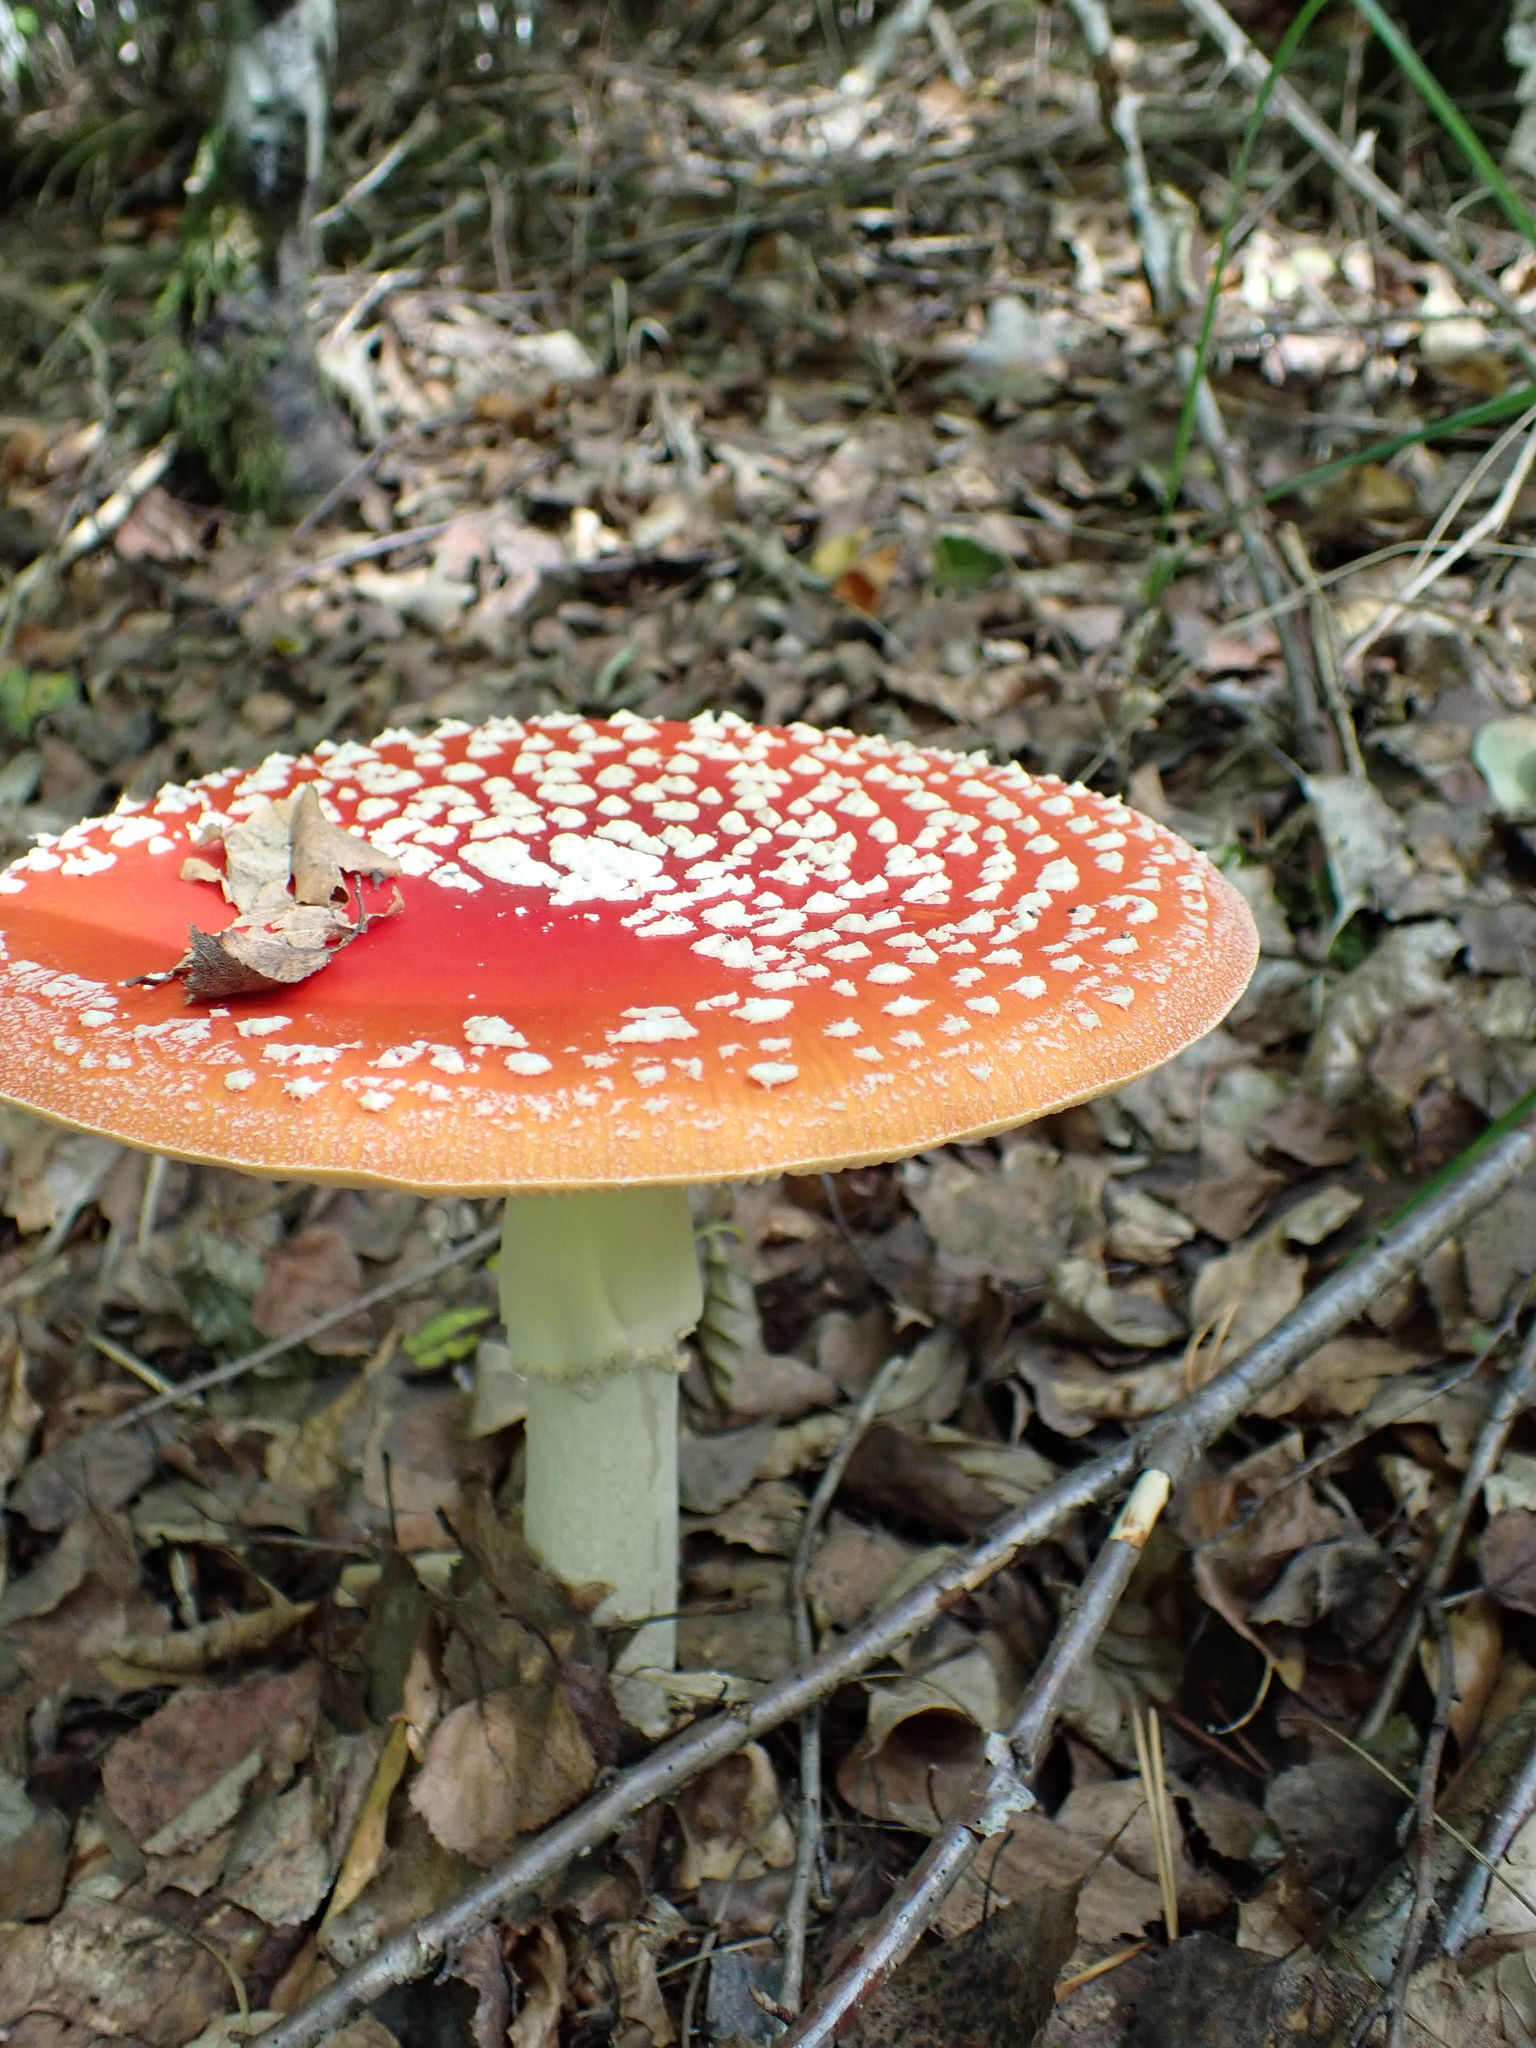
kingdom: Fungi
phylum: Basidiomycota
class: Agaricomycetes
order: Agaricales
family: Amanitaceae
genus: Amanita
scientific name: Amanita muscaria
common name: Fly agaric
